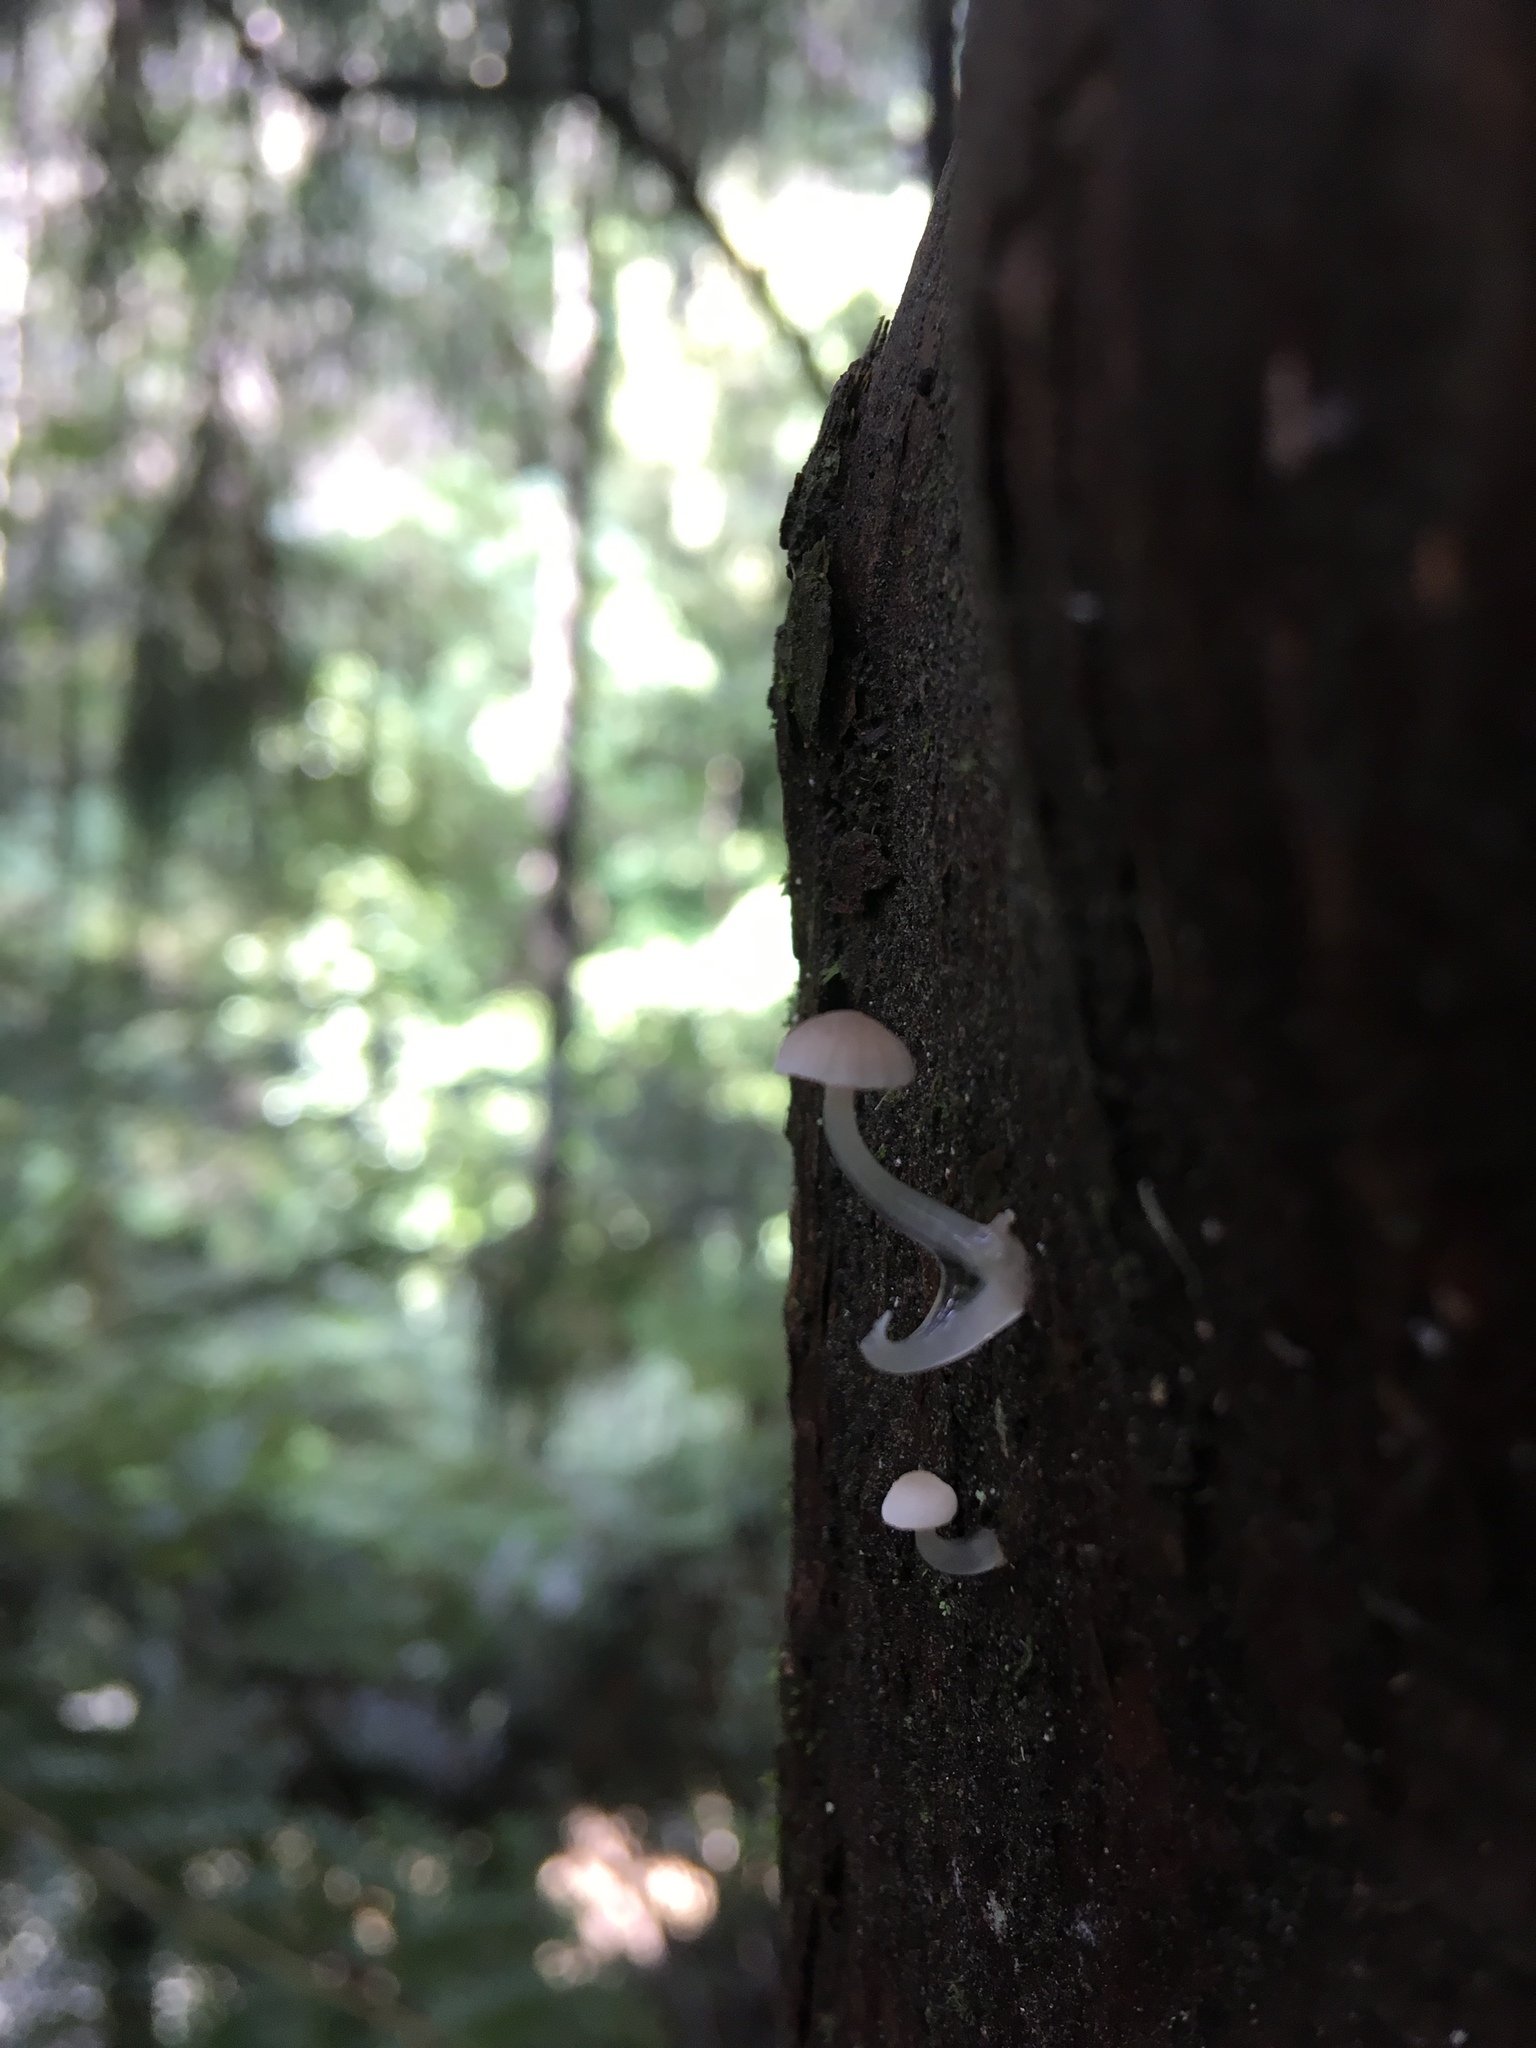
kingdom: Fungi
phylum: Basidiomycota
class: Agaricomycetes
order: Agaricales
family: Mycenaceae
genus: Roridomyces
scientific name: Roridomyces austrororidus
